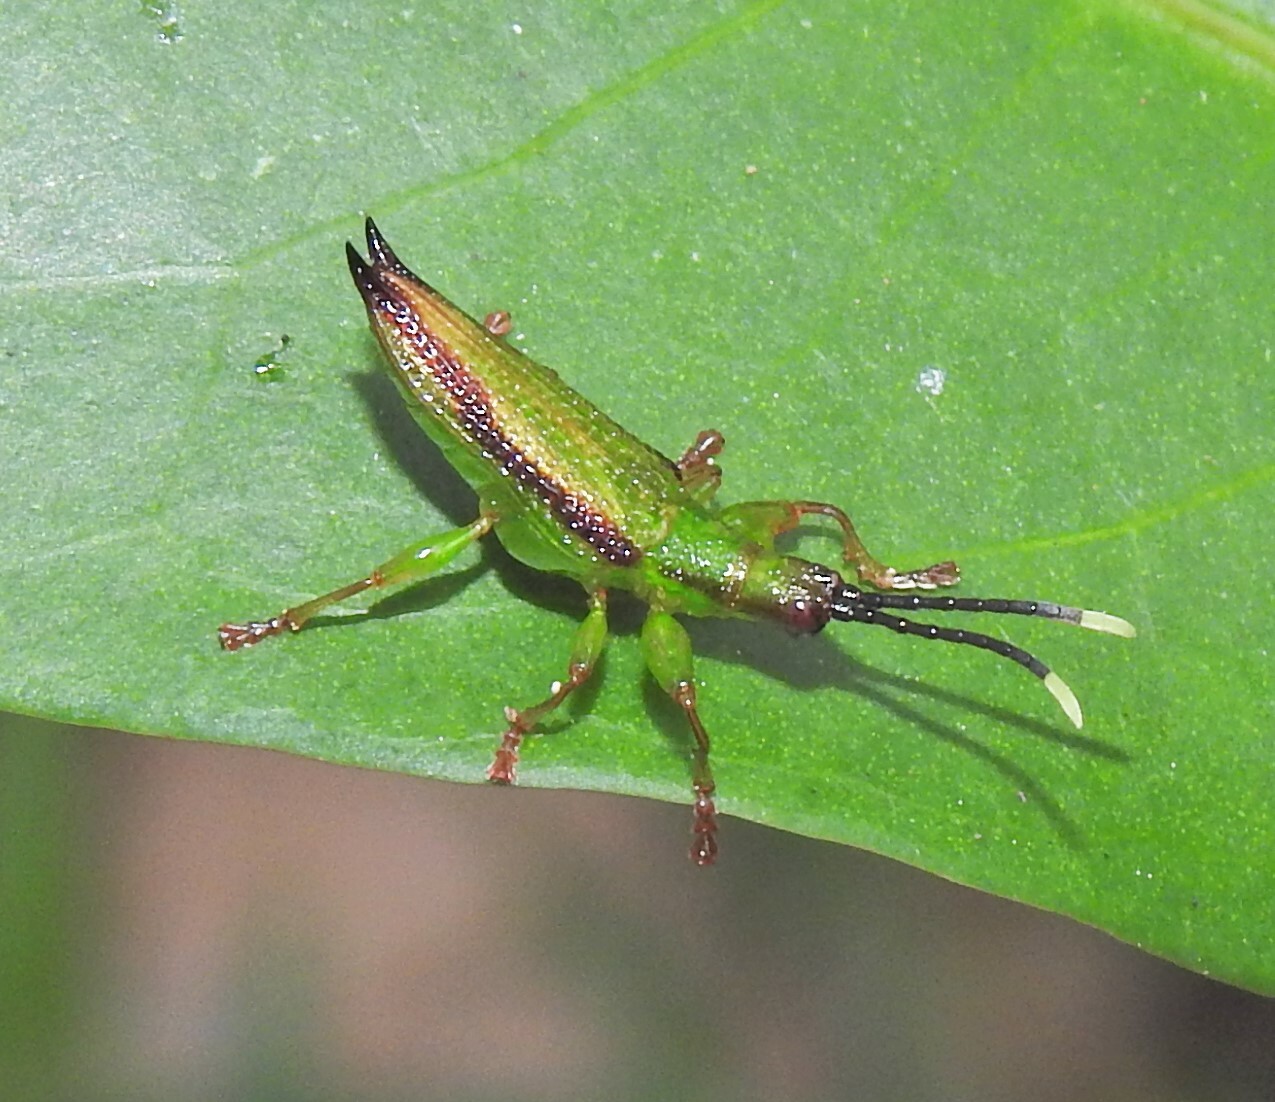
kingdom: Animalia
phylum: Arthropoda
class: Insecta
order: Coleoptera
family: Chrysomelidae
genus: Aproida
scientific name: Aproida balyi
